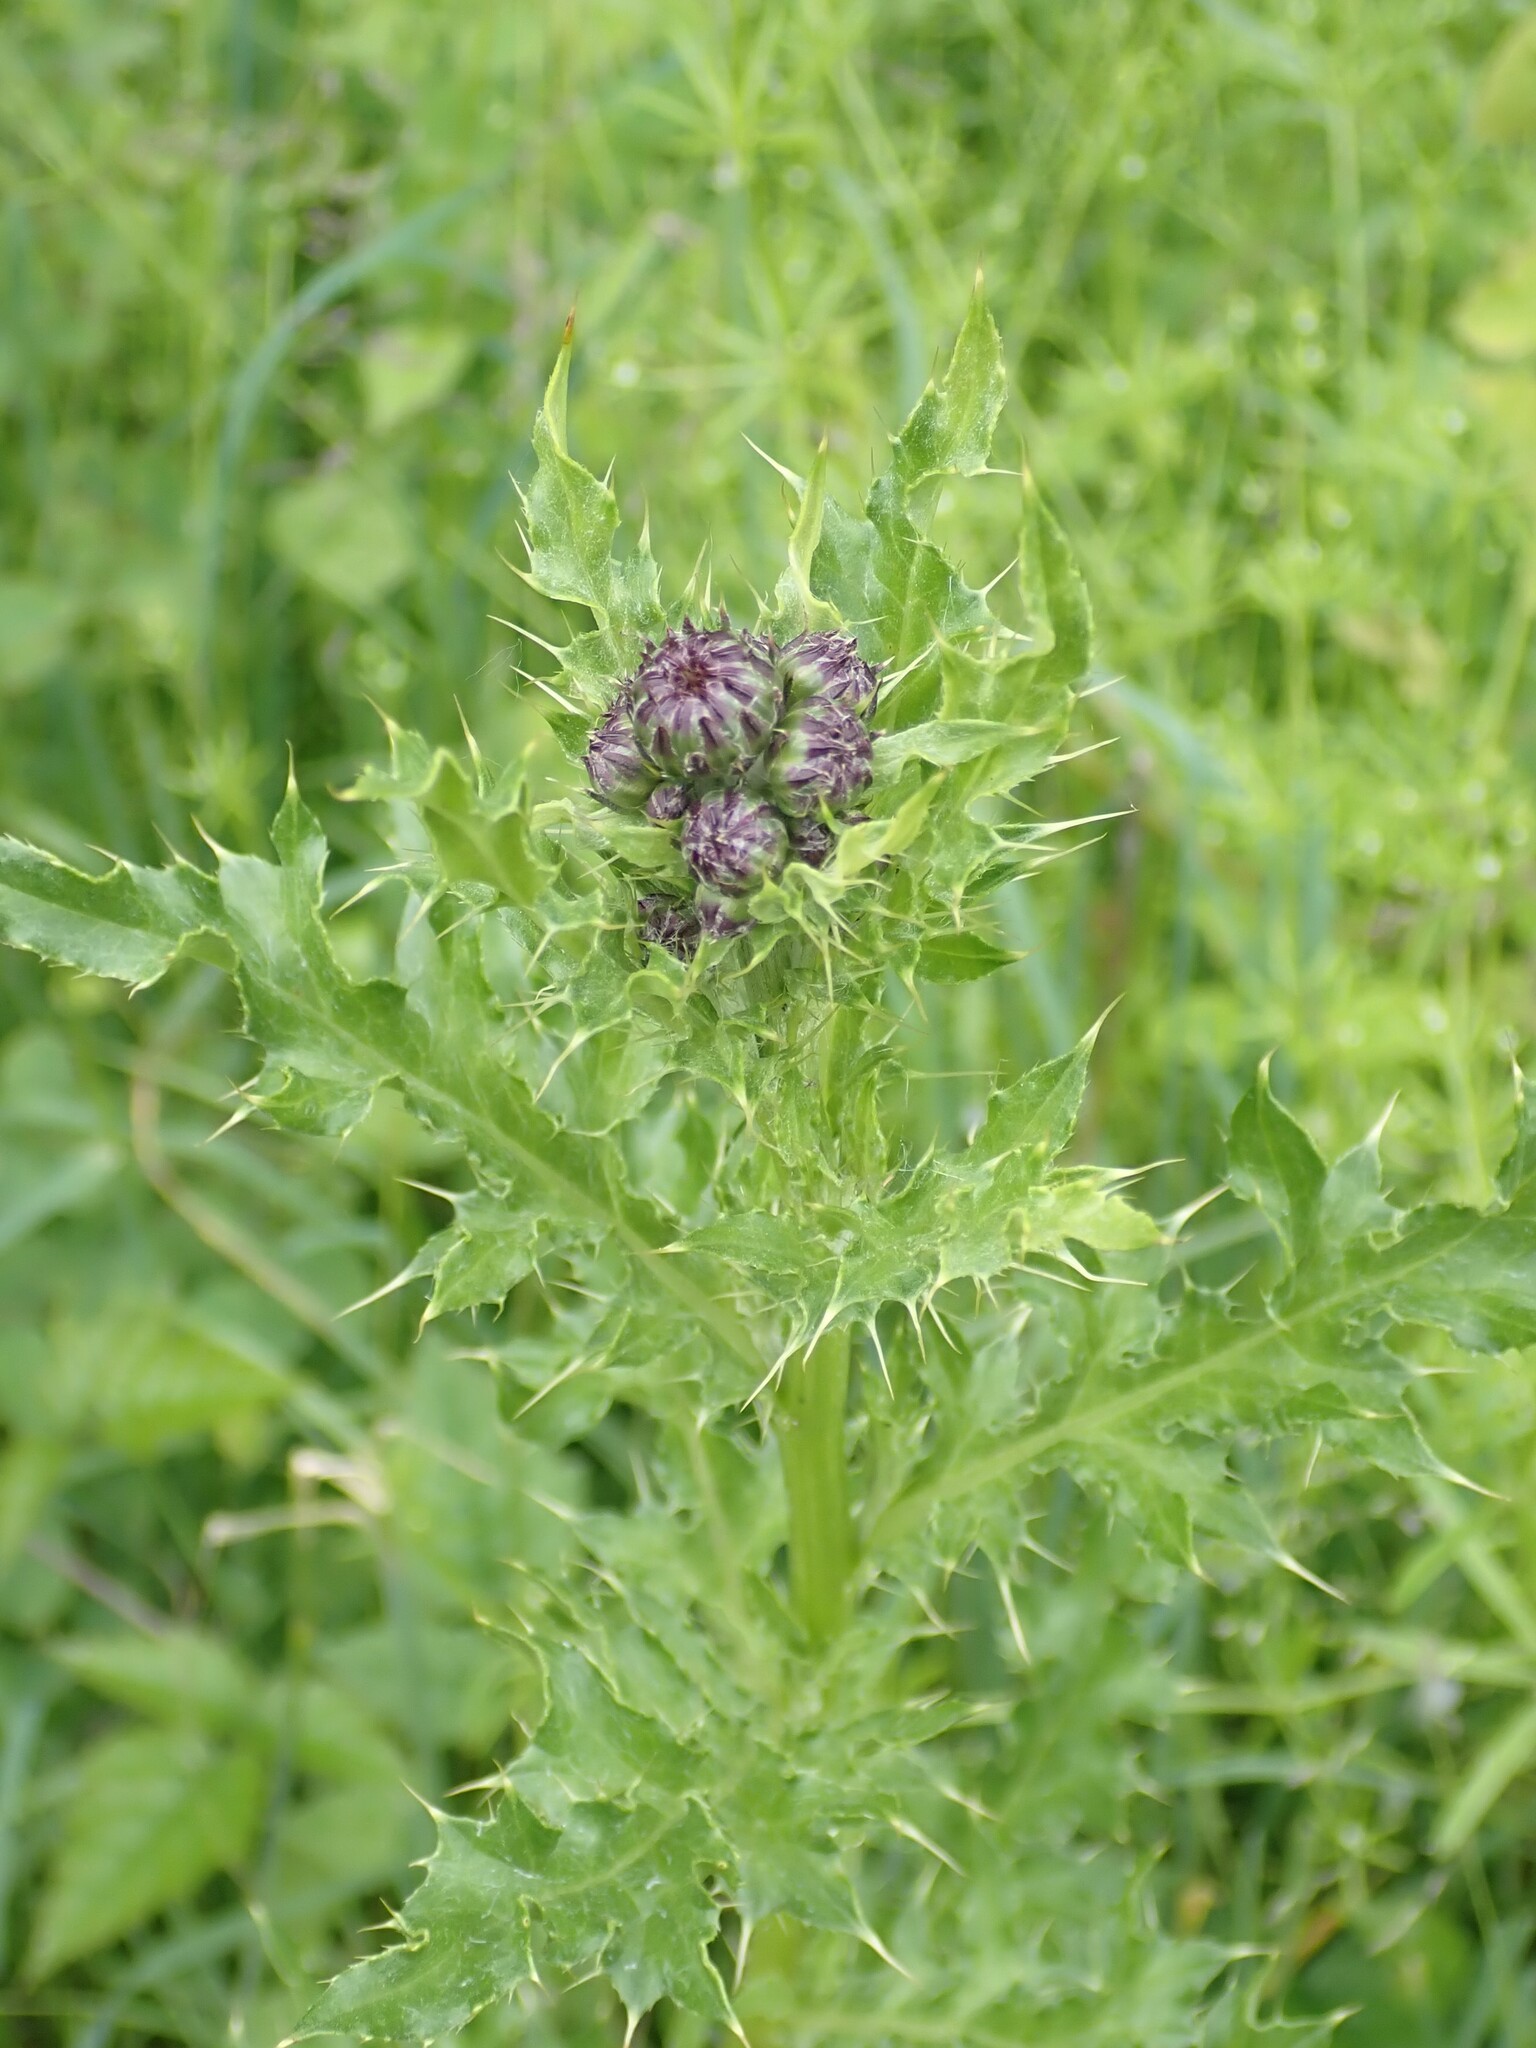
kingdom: Plantae
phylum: Tracheophyta
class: Magnoliopsida
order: Asterales
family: Asteraceae
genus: Cirsium
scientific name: Cirsium arvense
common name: Creeping thistle
